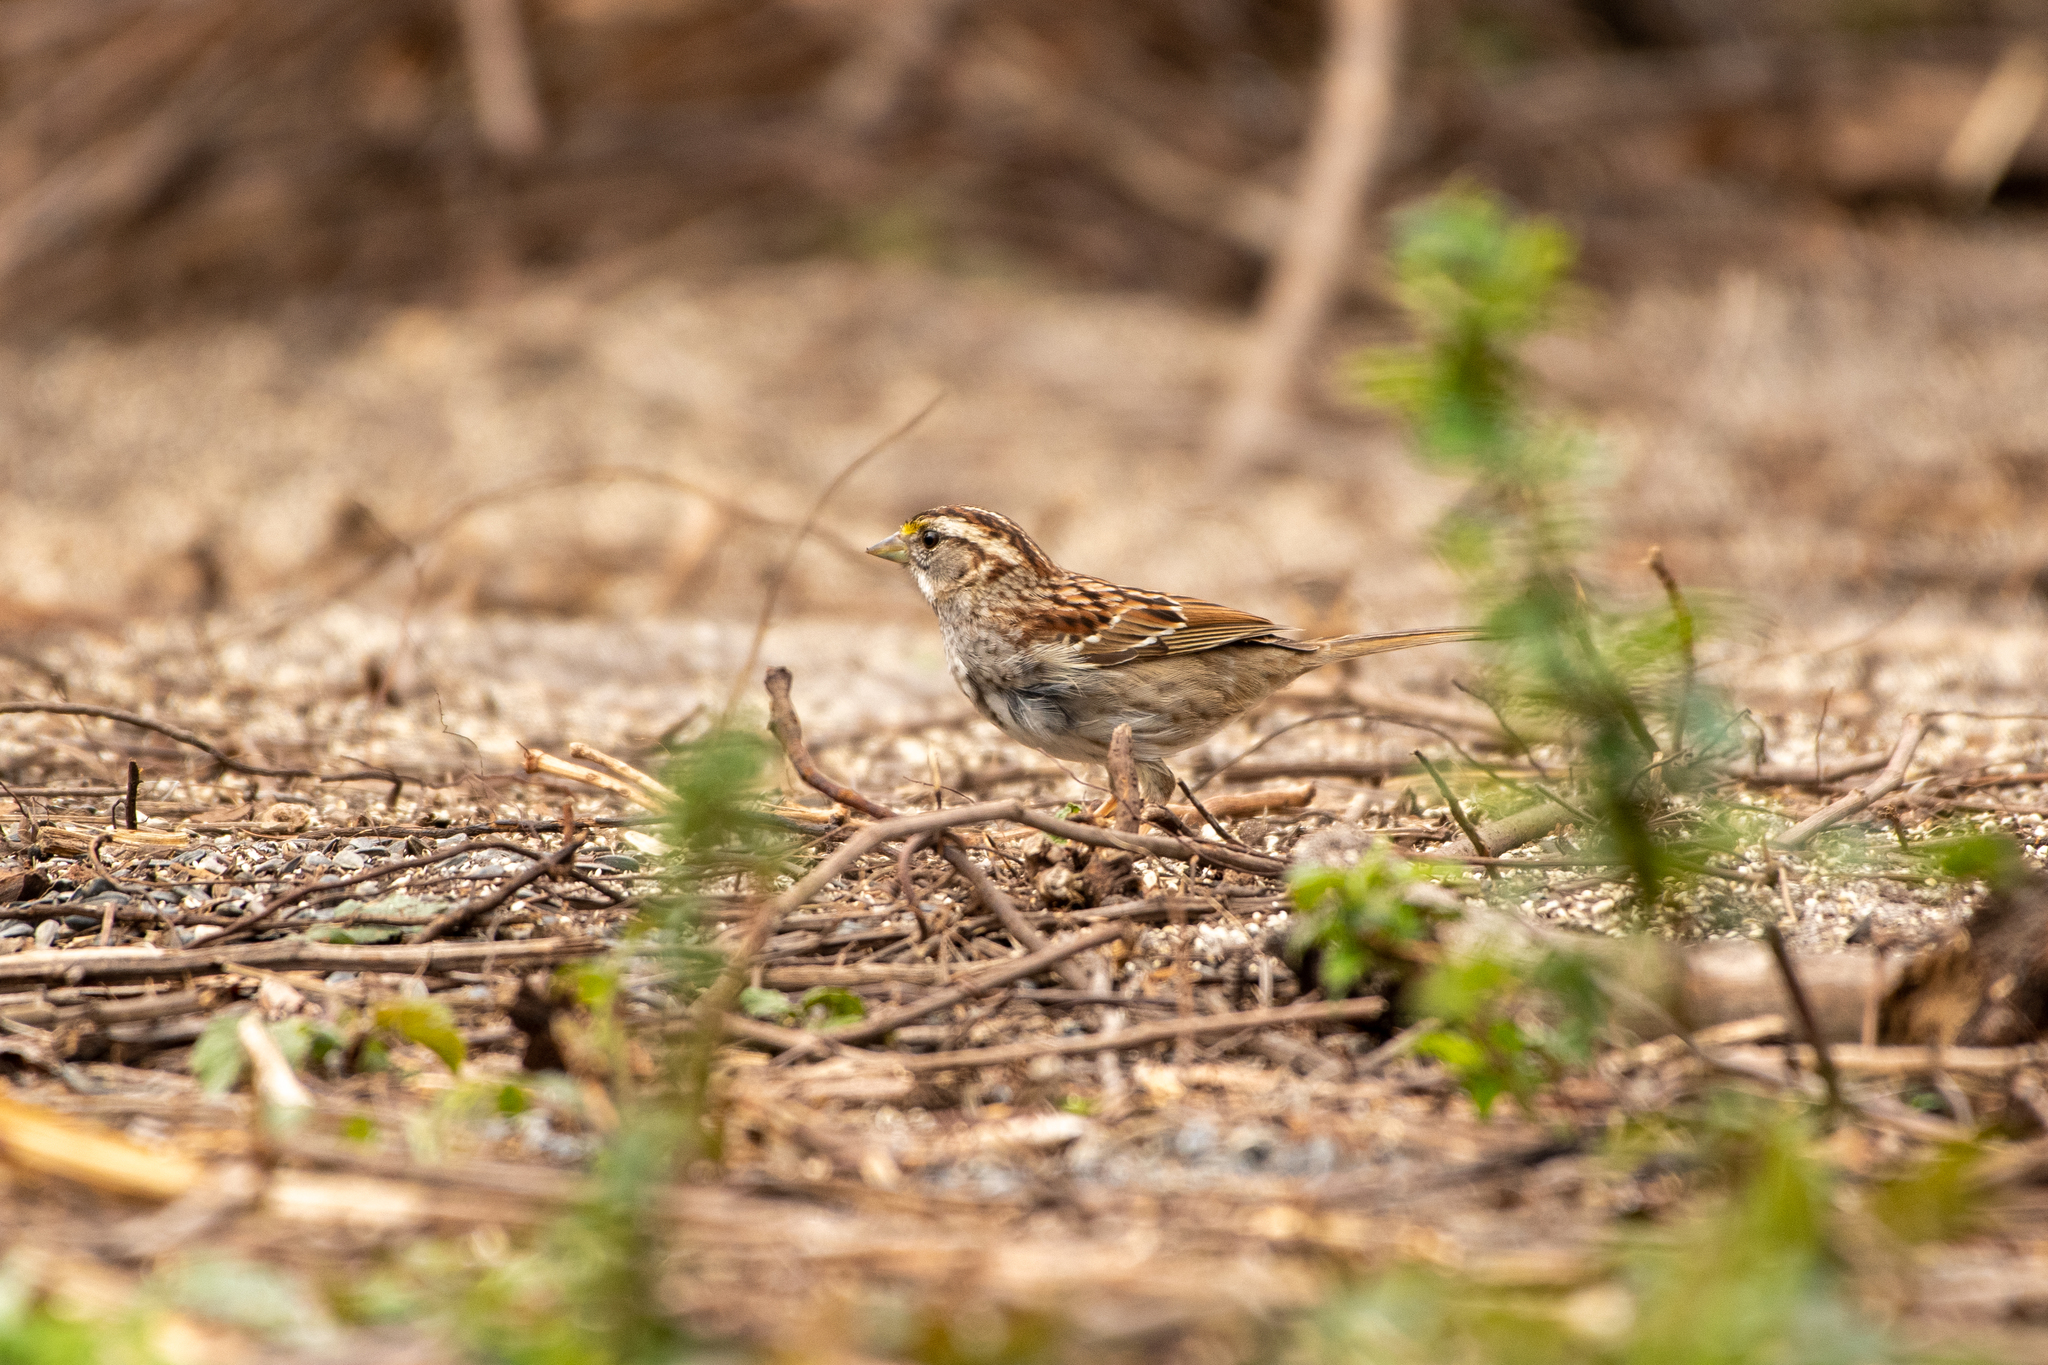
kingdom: Animalia
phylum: Chordata
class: Aves
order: Passeriformes
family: Passerellidae
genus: Zonotrichia
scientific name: Zonotrichia albicollis
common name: White-throated sparrow
